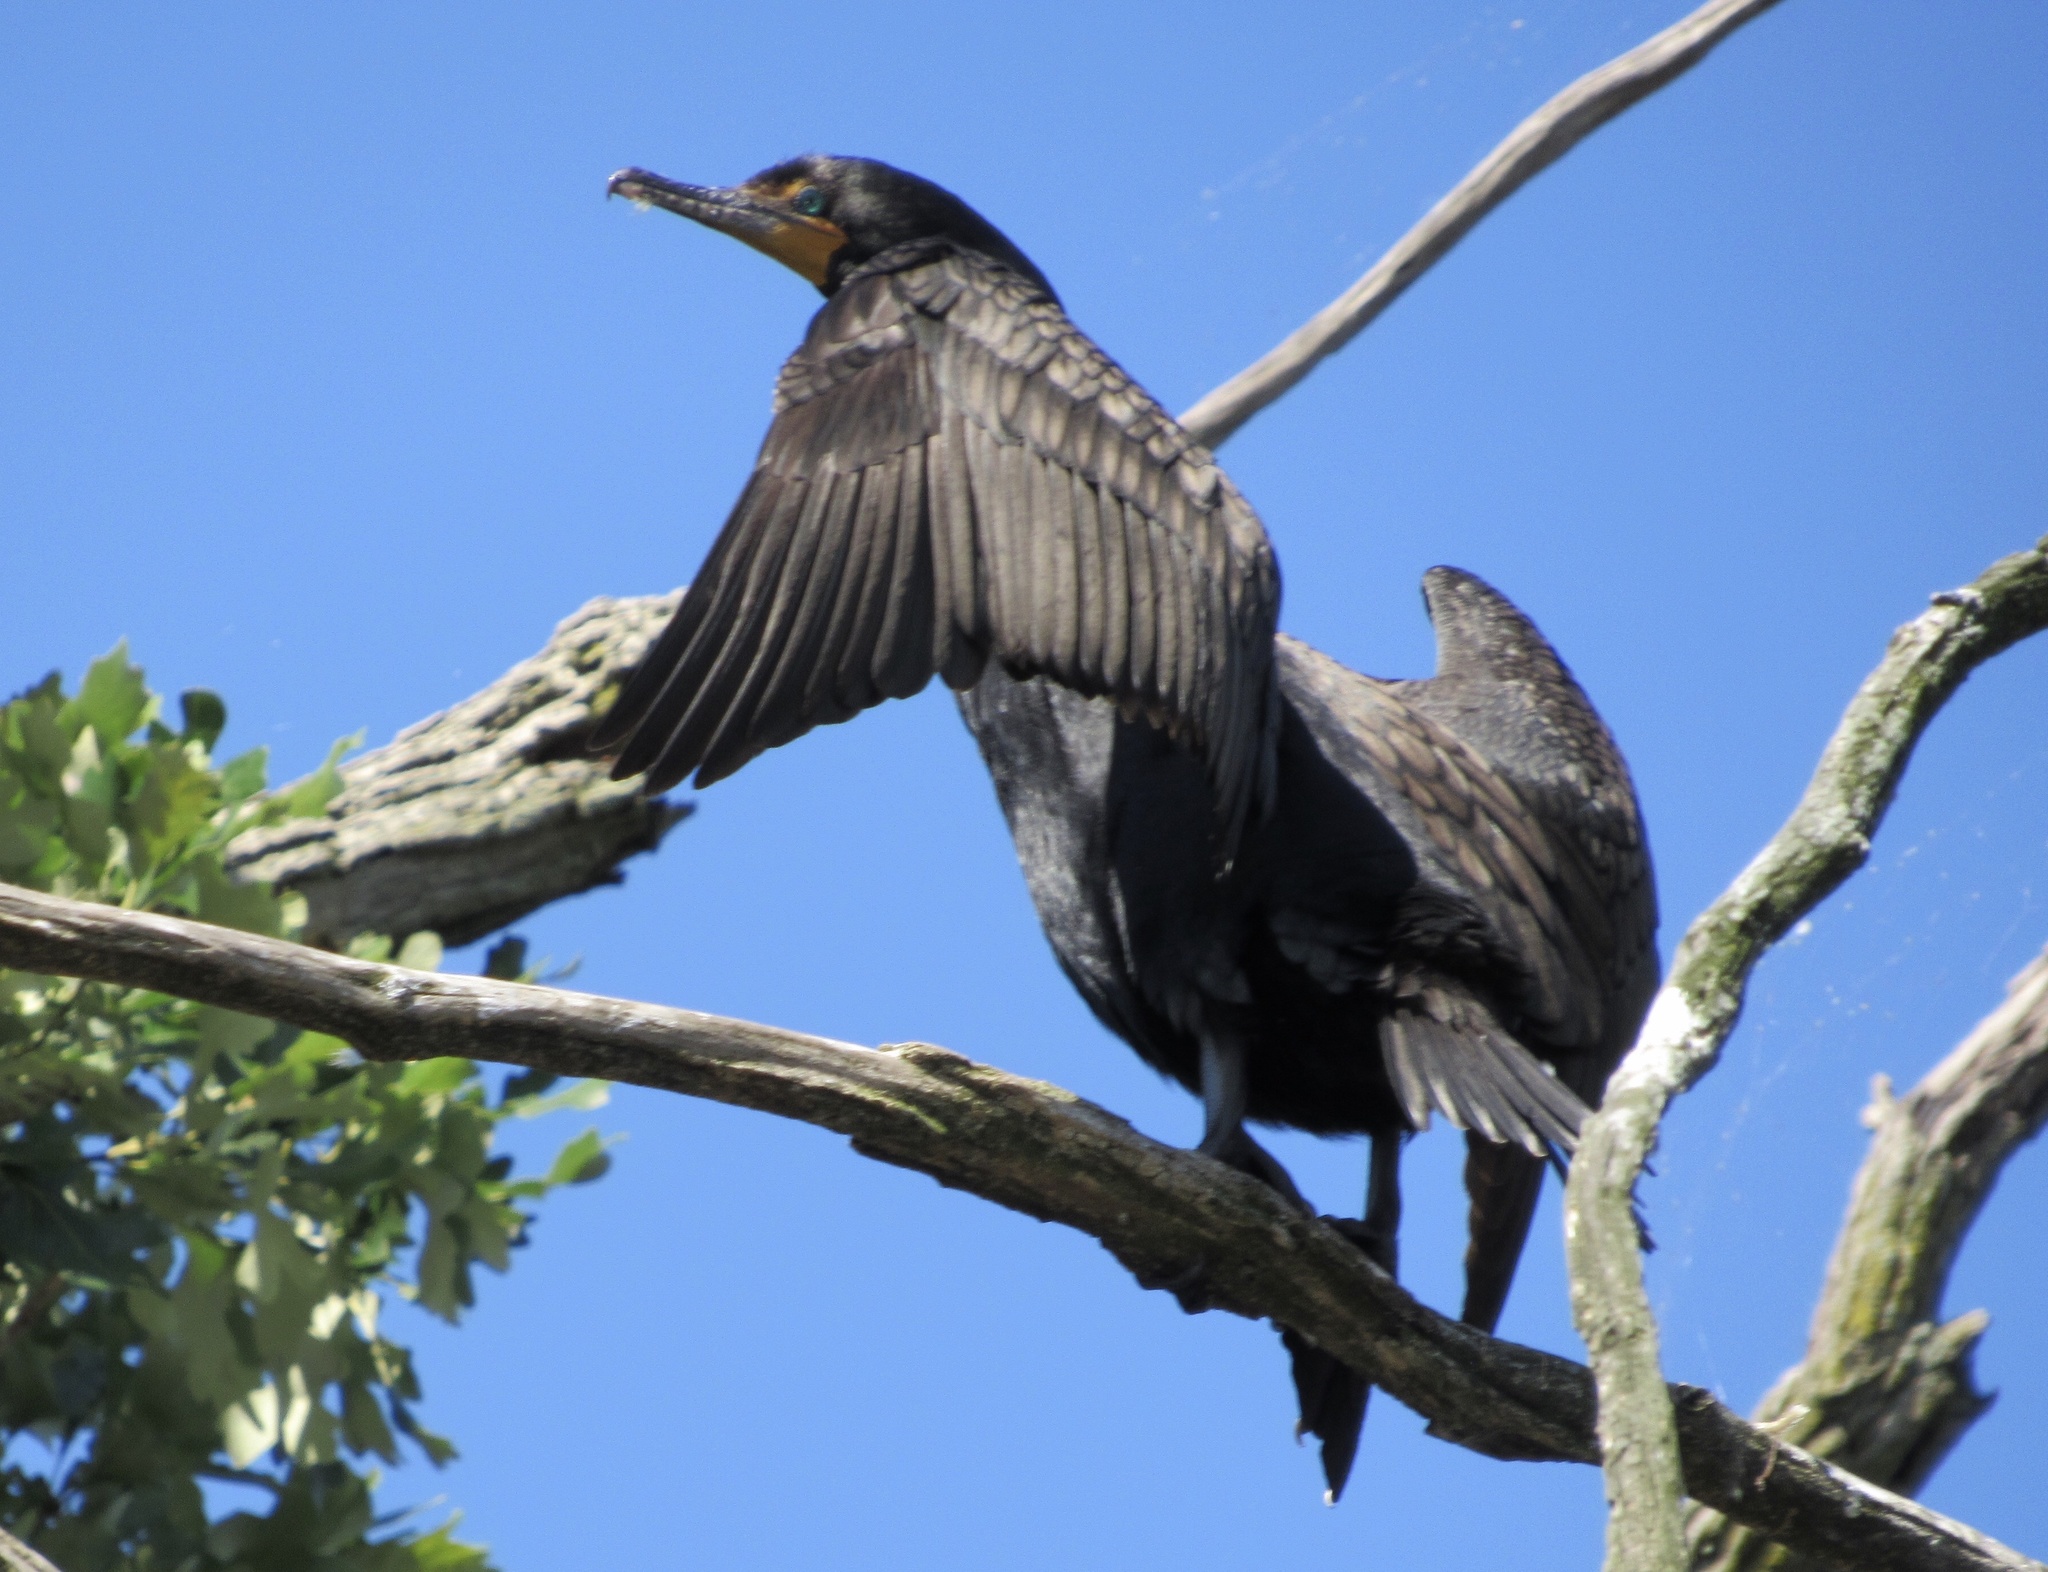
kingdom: Animalia
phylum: Chordata
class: Aves
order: Suliformes
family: Phalacrocoracidae
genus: Phalacrocorax
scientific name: Phalacrocorax auritus
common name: Double-crested cormorant
